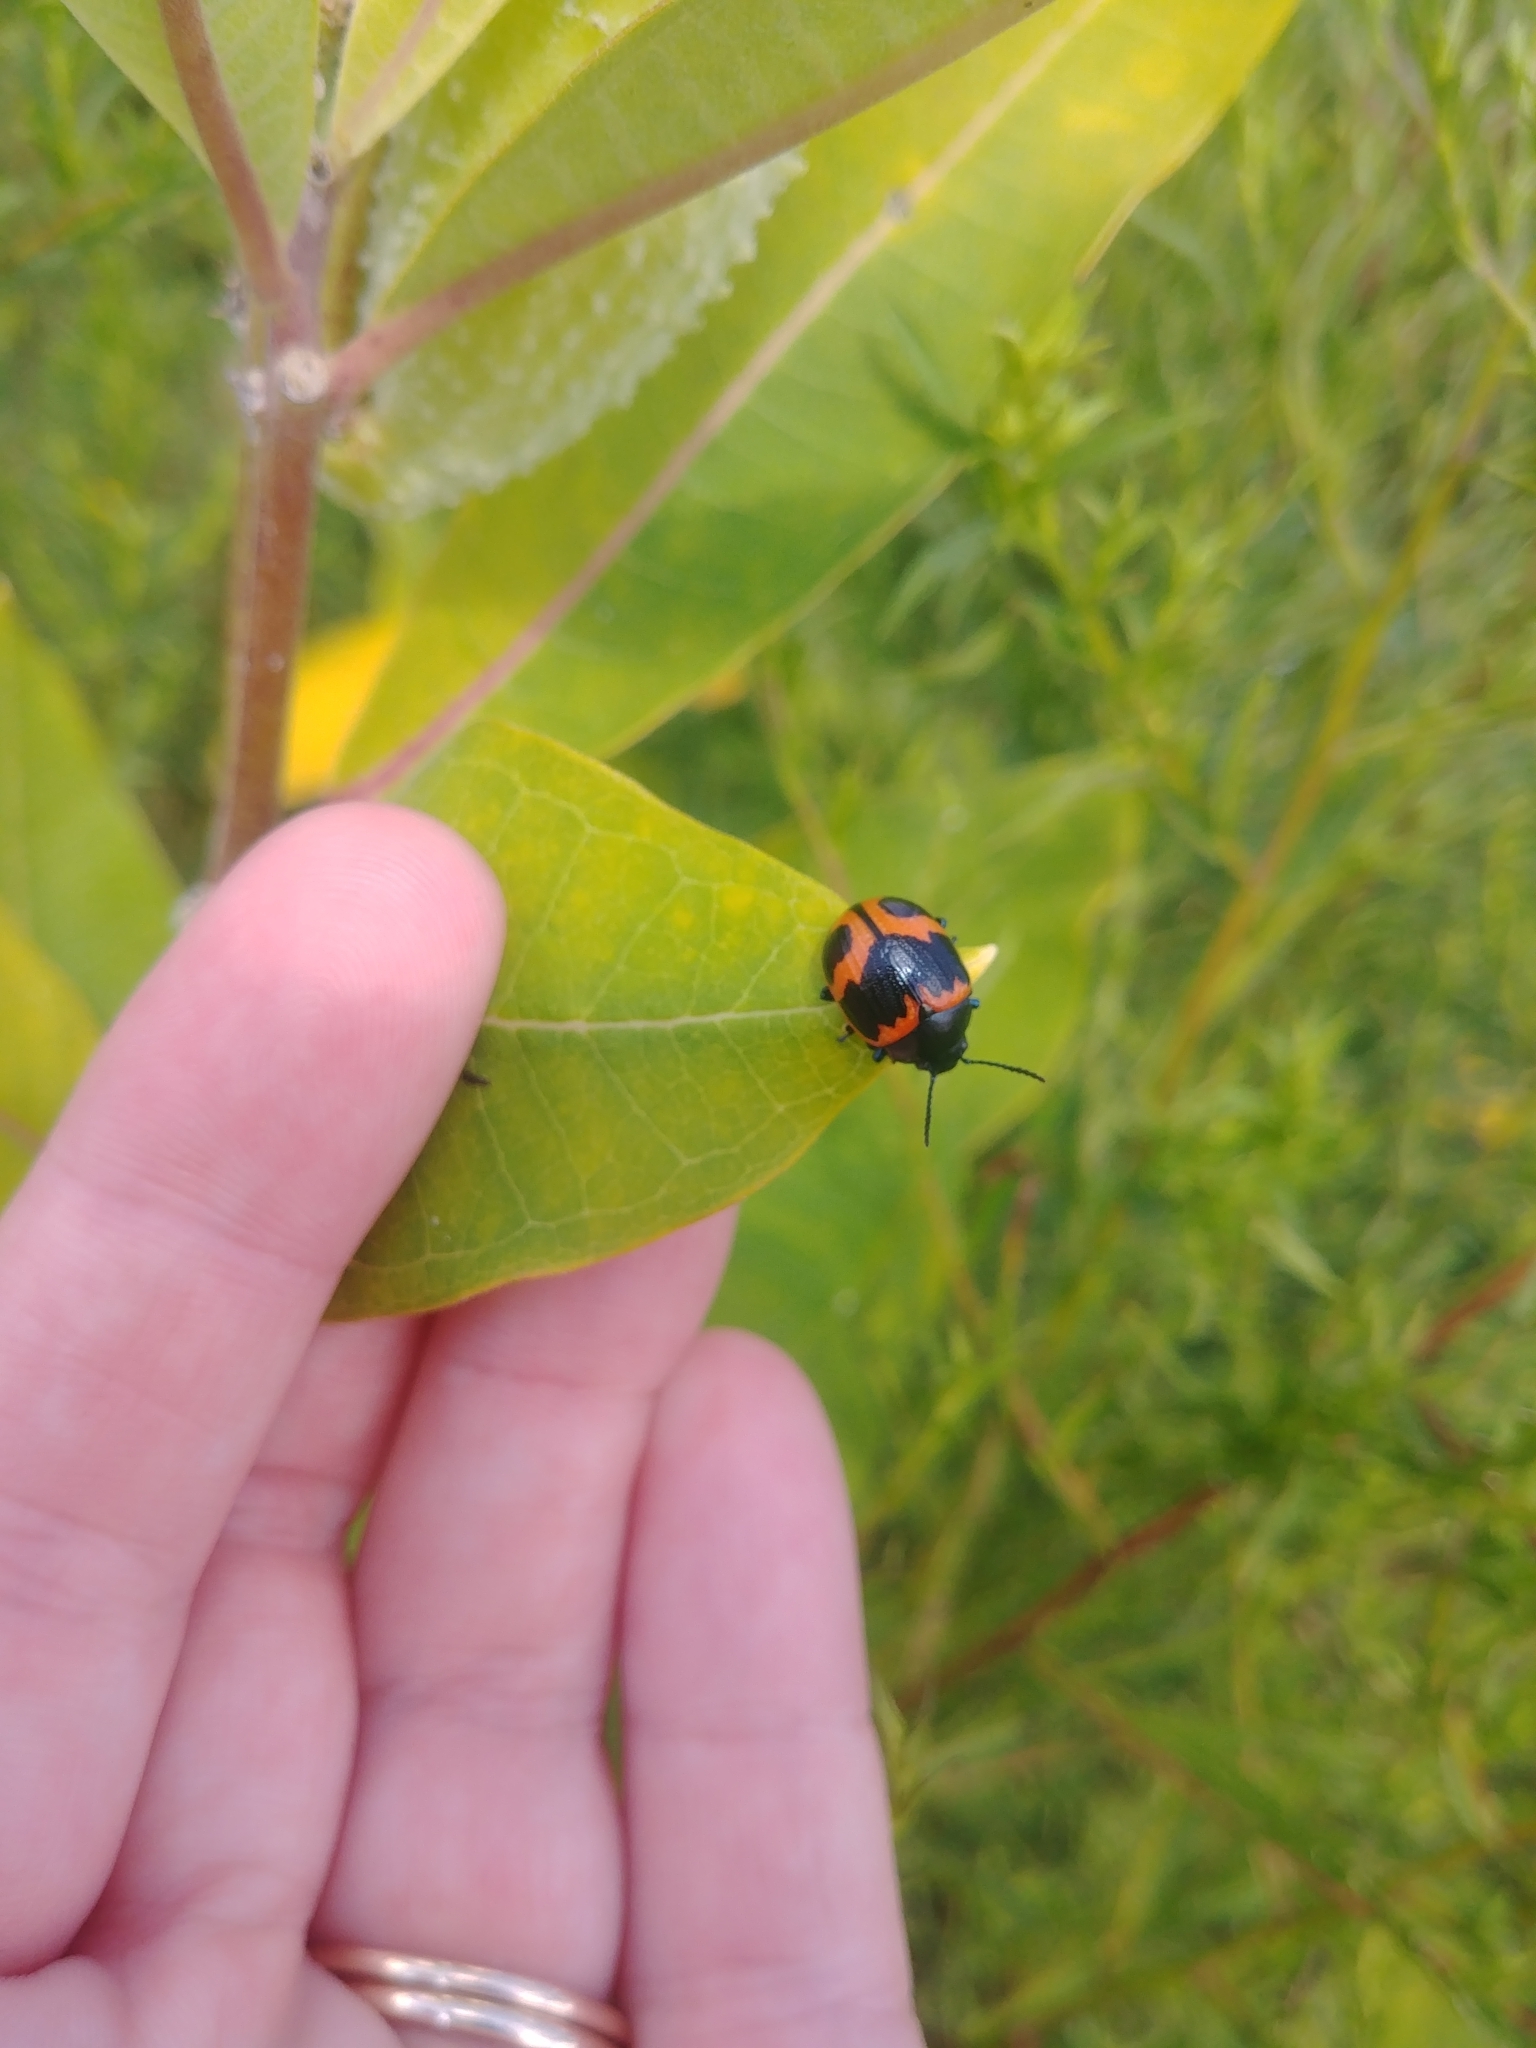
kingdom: Animalia
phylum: Arthropoda
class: Insecta
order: Coleoptera
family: Chrysomelidae
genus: Labidomera
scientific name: Labidomera clivicollis
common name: Swamp milkweed leaf beetle
